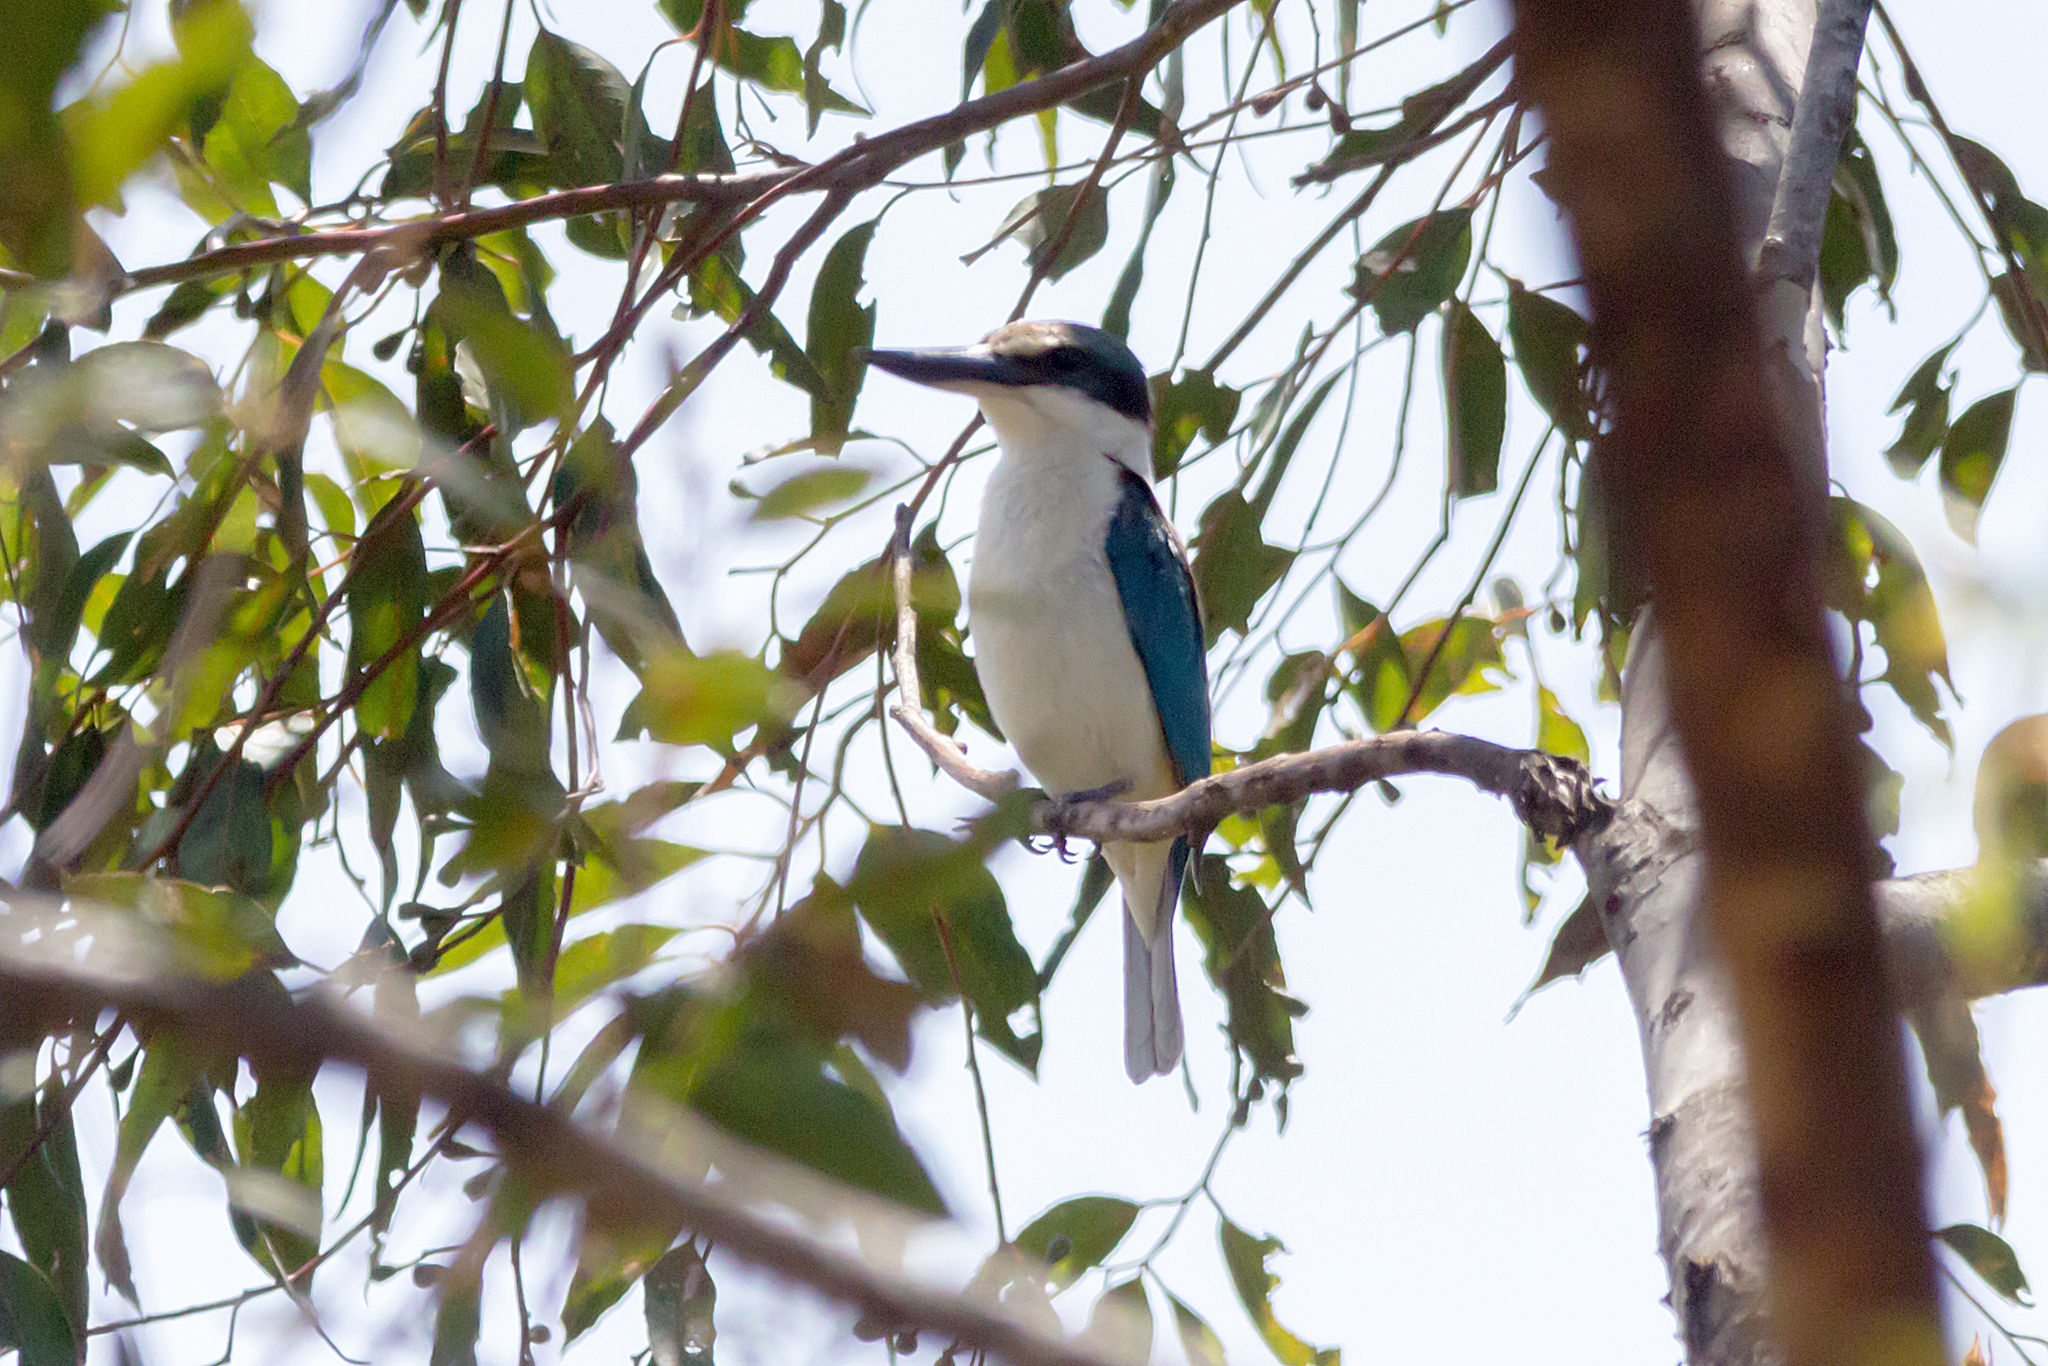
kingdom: Animalia
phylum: Chordata
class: Aves
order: Coraciiformes
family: Alcedinidae
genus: Todiramphus
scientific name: Todiramphus sanctus
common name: Sacred kingfisher
